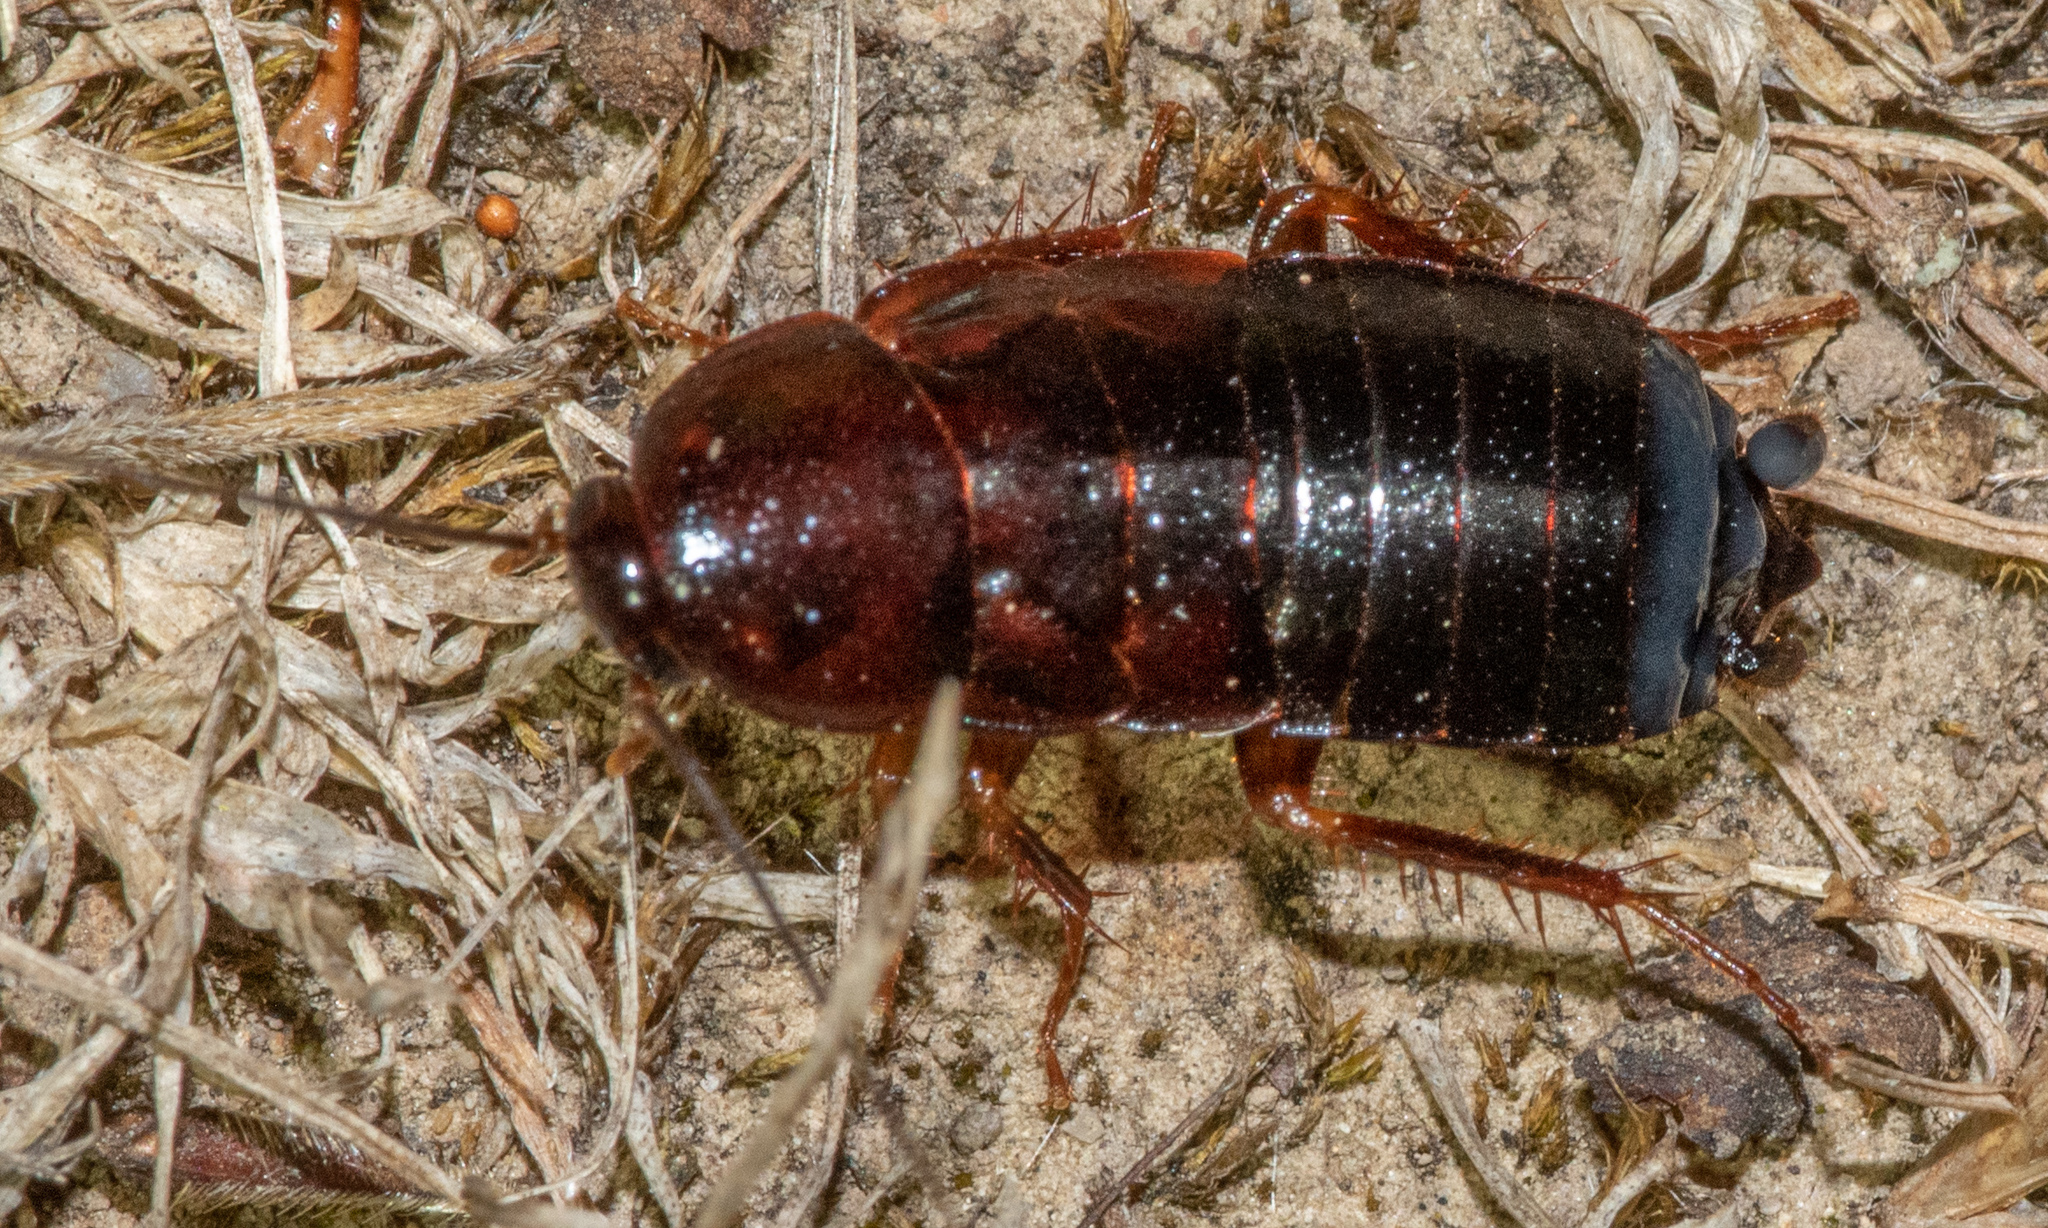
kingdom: Animalia
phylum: Arthropoda
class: Insecta
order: Blattodea
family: Ectobiidae
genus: Parcoblatta
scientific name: Parcoblatta americana
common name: Western wood cockroach
